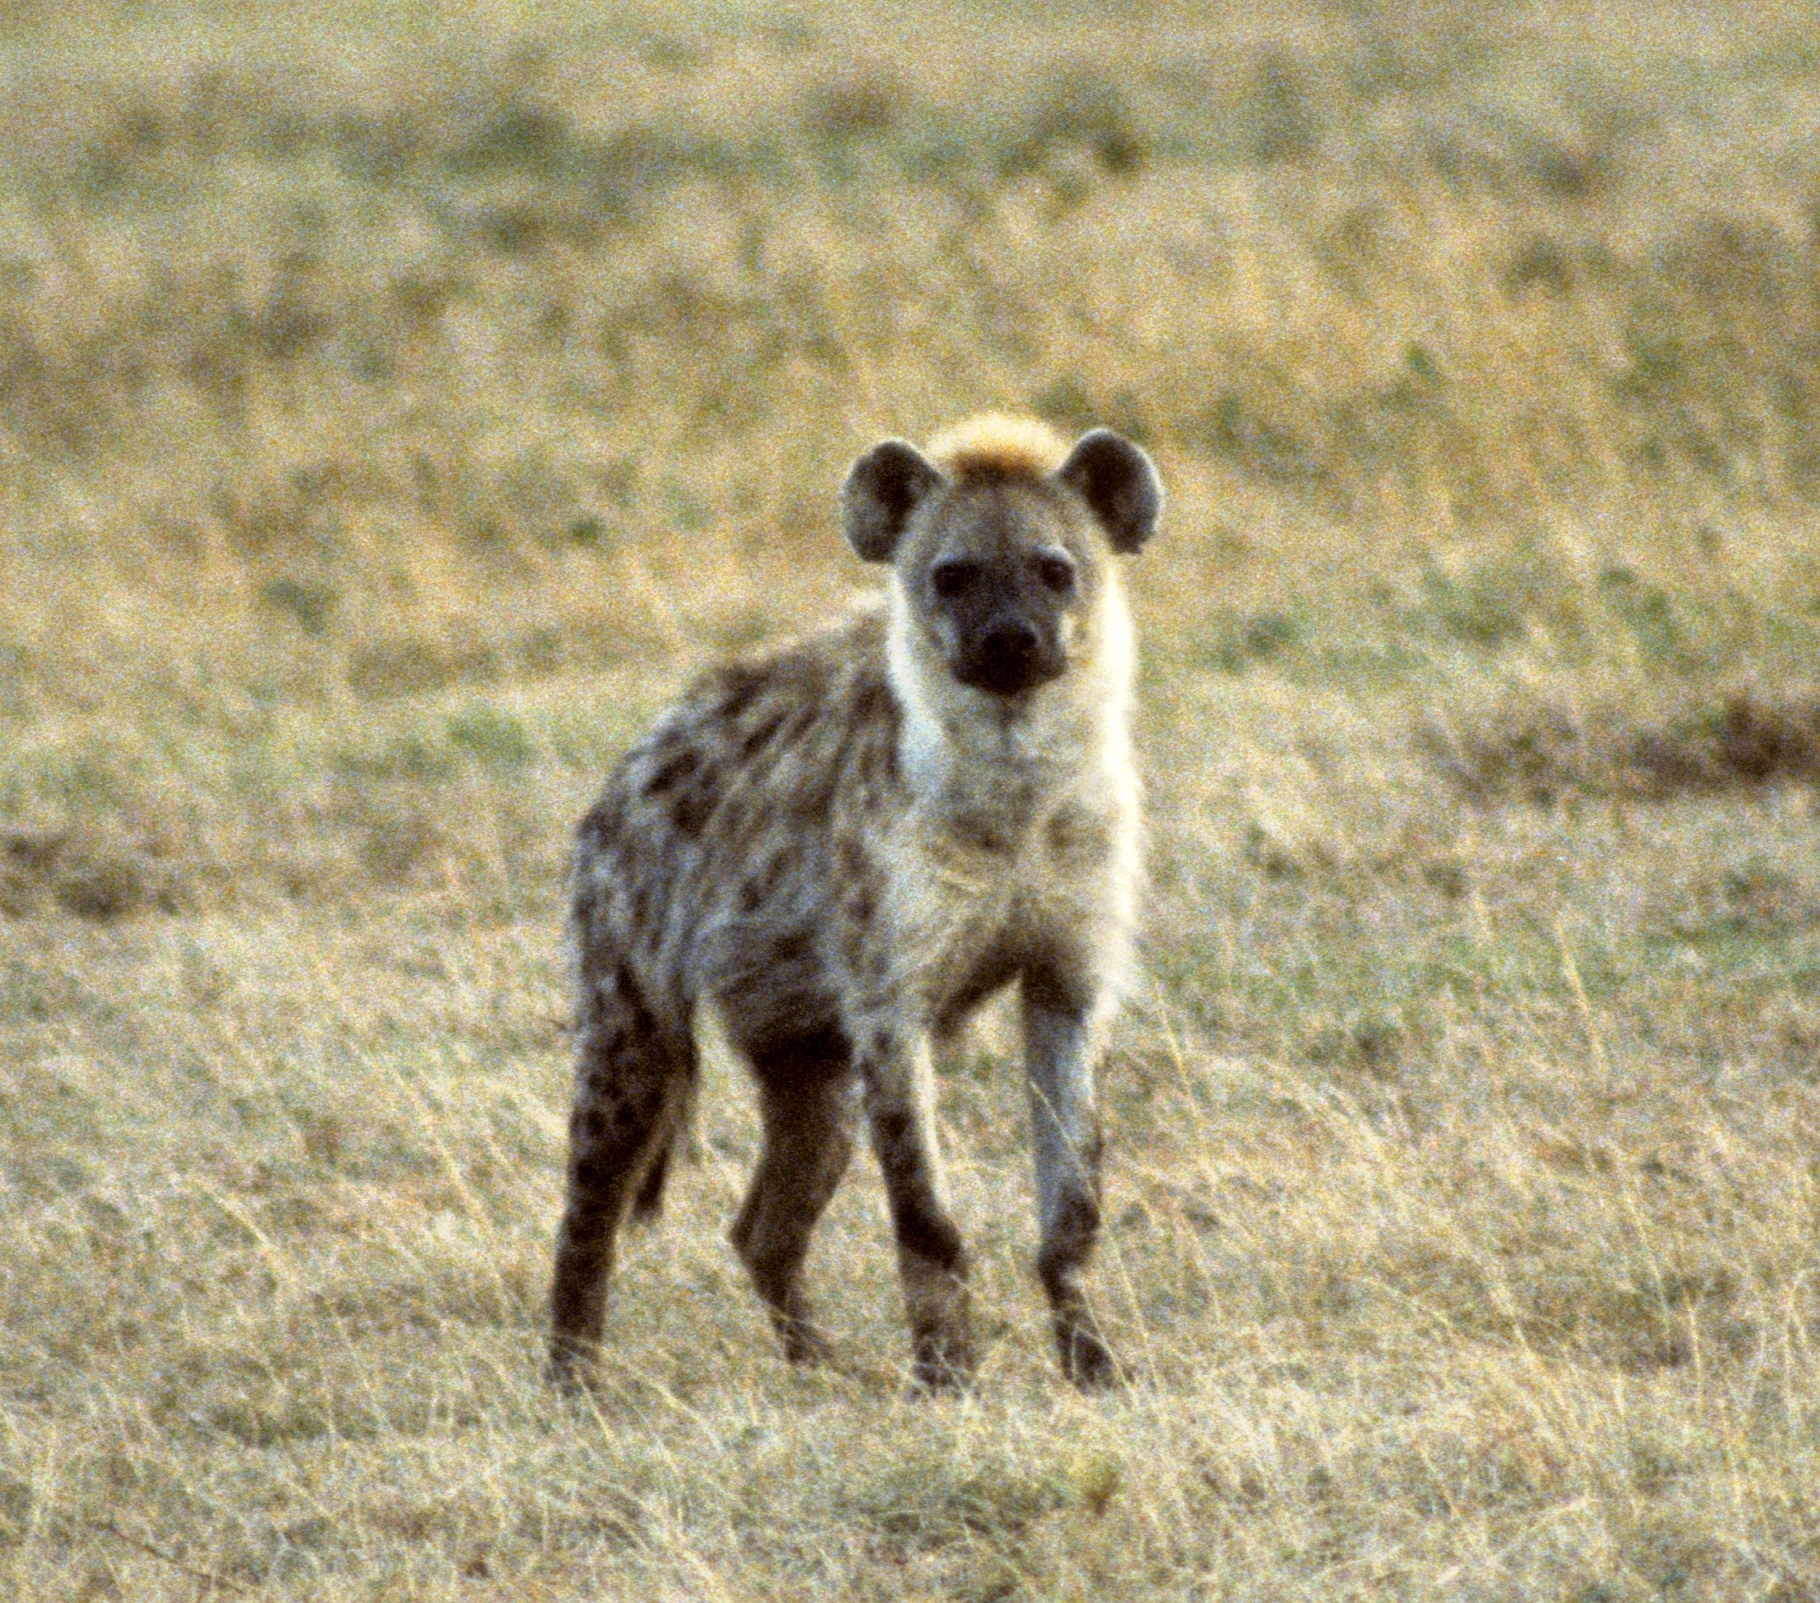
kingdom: Animalia
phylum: Chordata
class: Mammalia
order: Carnivora
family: Hyaenidae
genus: Crocuta
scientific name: Crocuta crocuta
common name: Spotted hyaena
